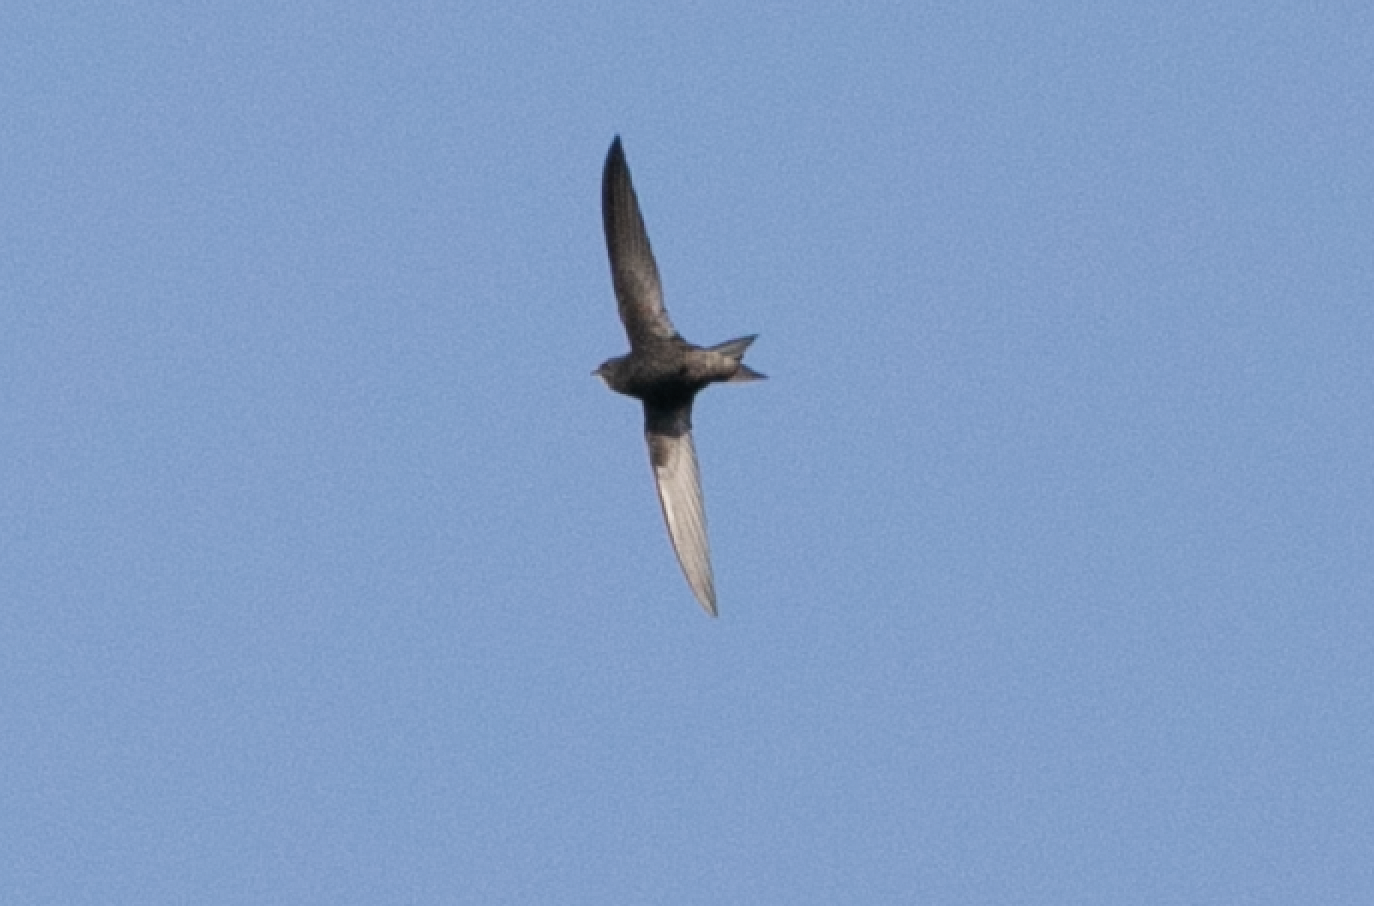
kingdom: Animalia
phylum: Chordata
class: Aves
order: Apodiformes
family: Apodidae
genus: Apus
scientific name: Apus apus
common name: Common swift
